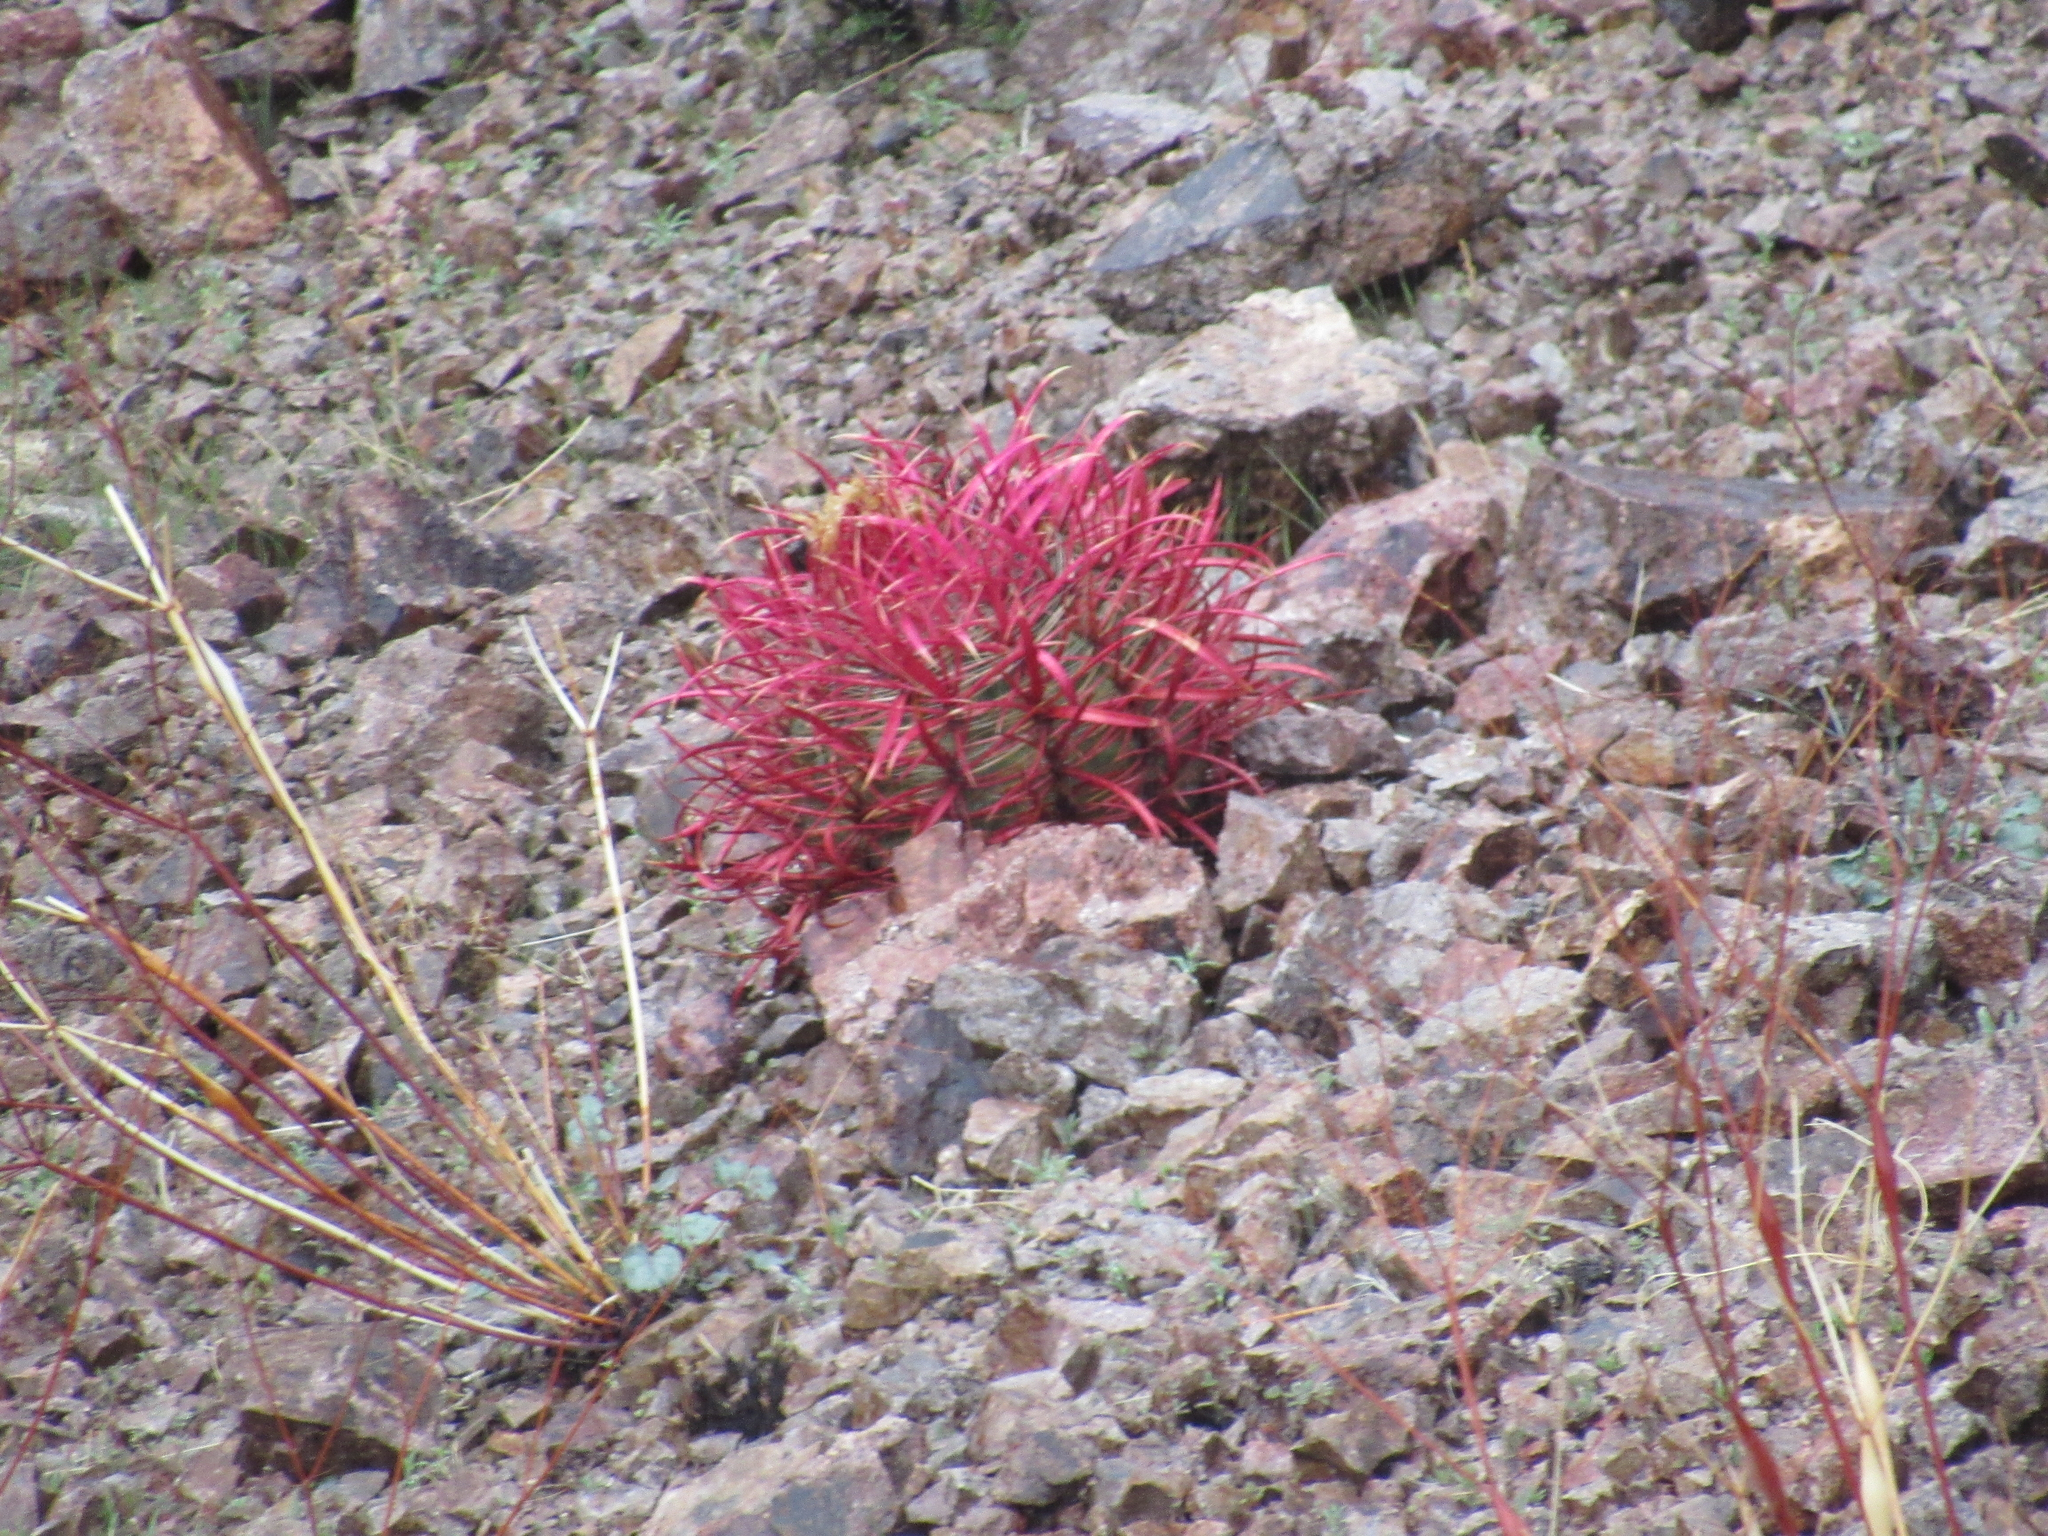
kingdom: Plantae
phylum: Tracheophyta
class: Magnoliopsida
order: Caryophyllales
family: Cactaceae
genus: Ferocactus
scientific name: Ferocactus cylindraceus
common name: California barrel cactus
